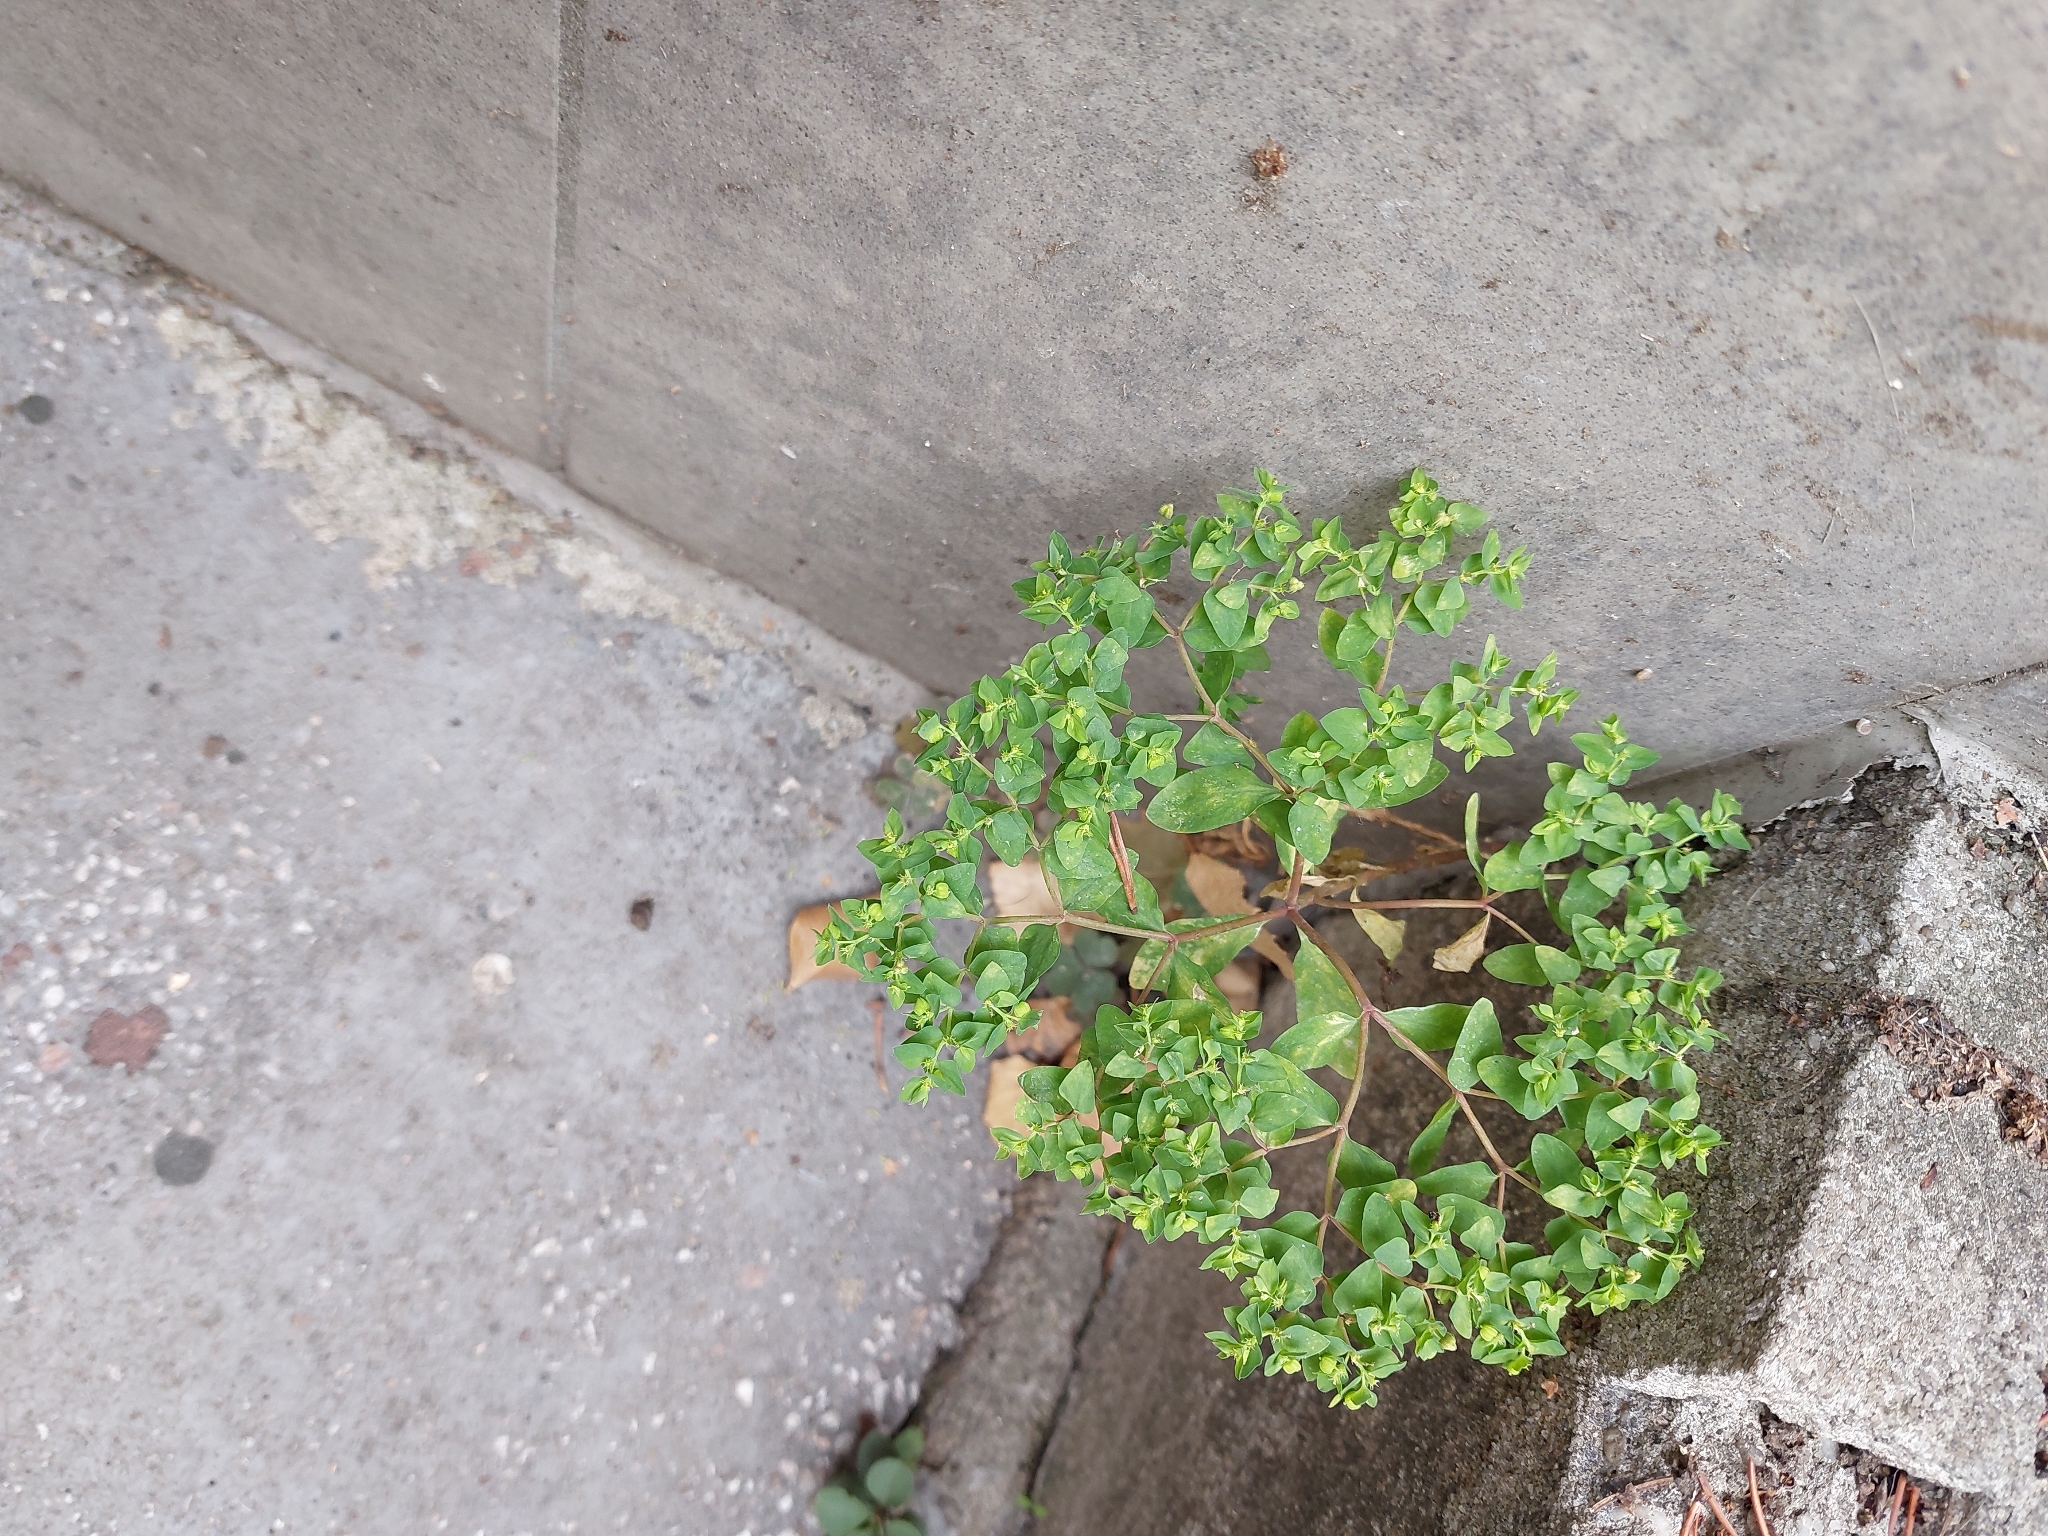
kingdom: Plantae
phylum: Tracheophyta
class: Magnoliopsida
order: Malpighiales
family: Euphorbiaceae
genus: Euphorbia
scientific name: Euphorbia peplus
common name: Petty spurge
